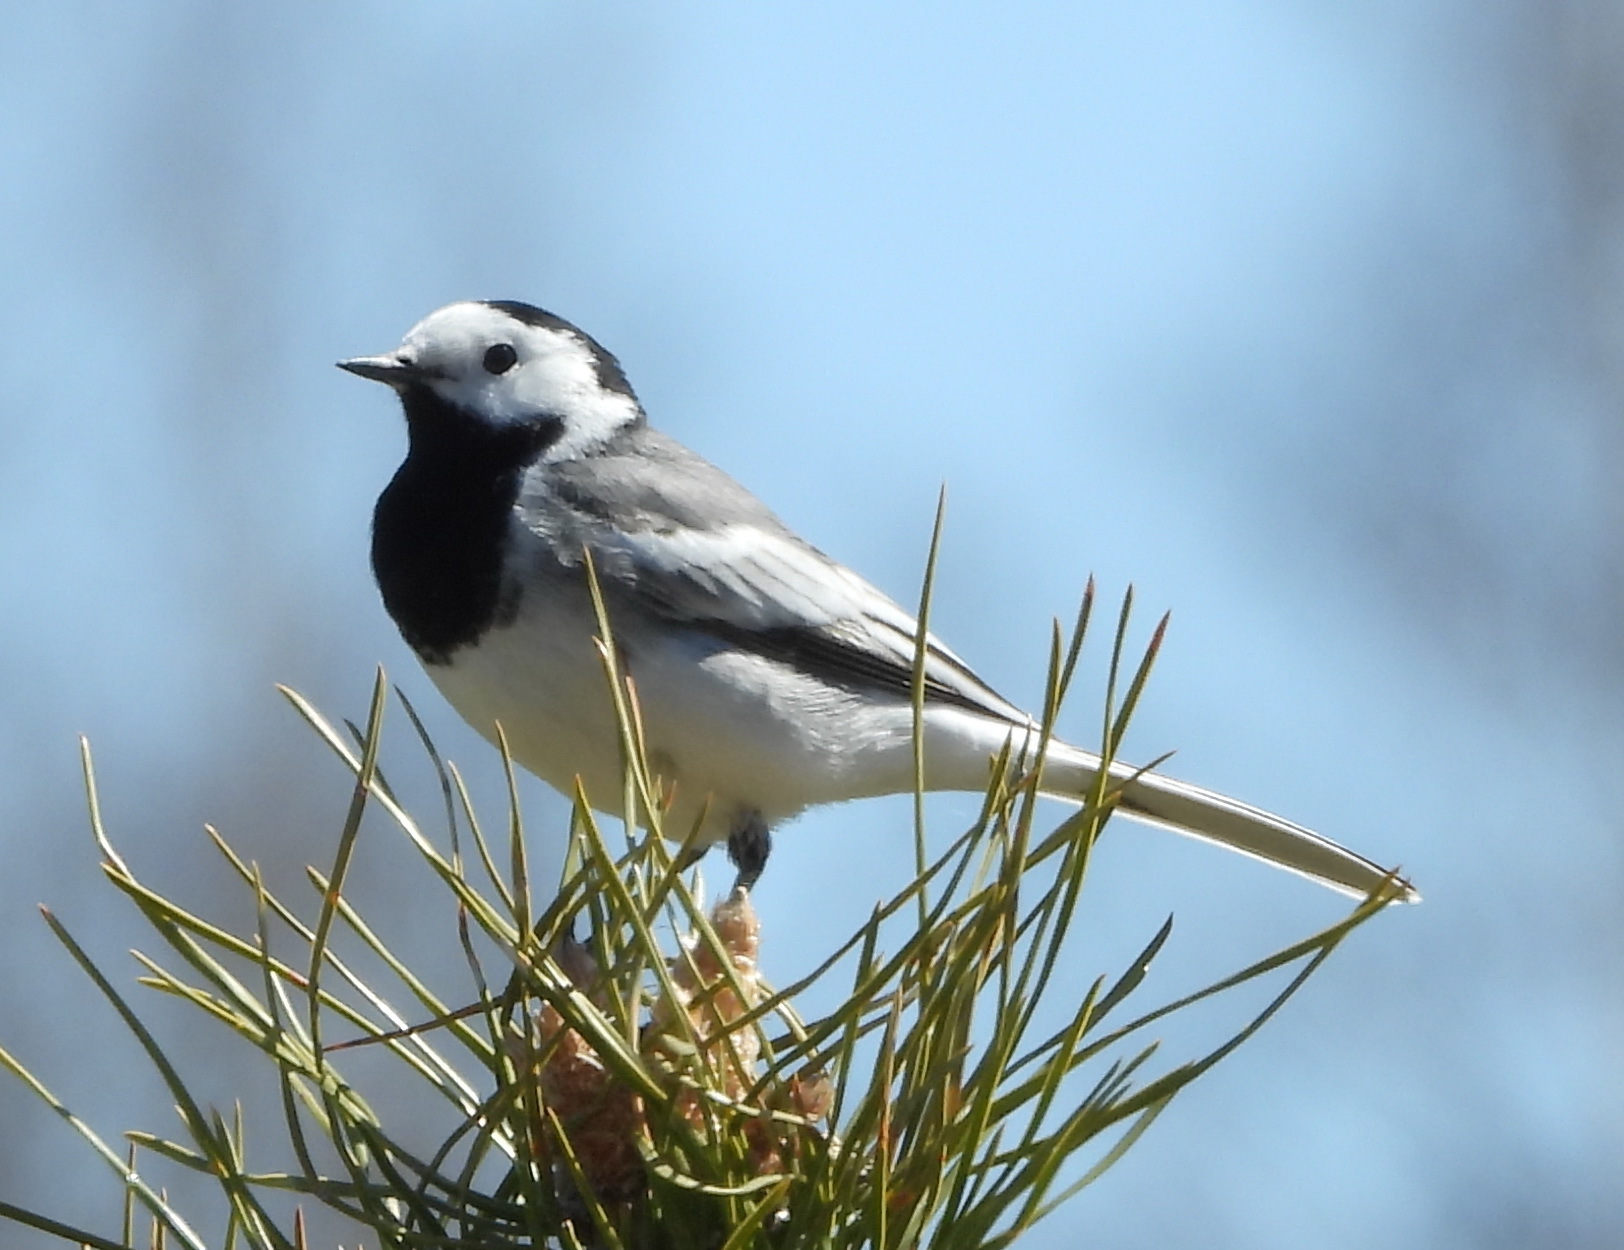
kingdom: Animalia
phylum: Chordata
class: Aves
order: Passeriformes
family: Motacillidae
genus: Motacilla
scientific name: Motacilla alba
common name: White wagtail
